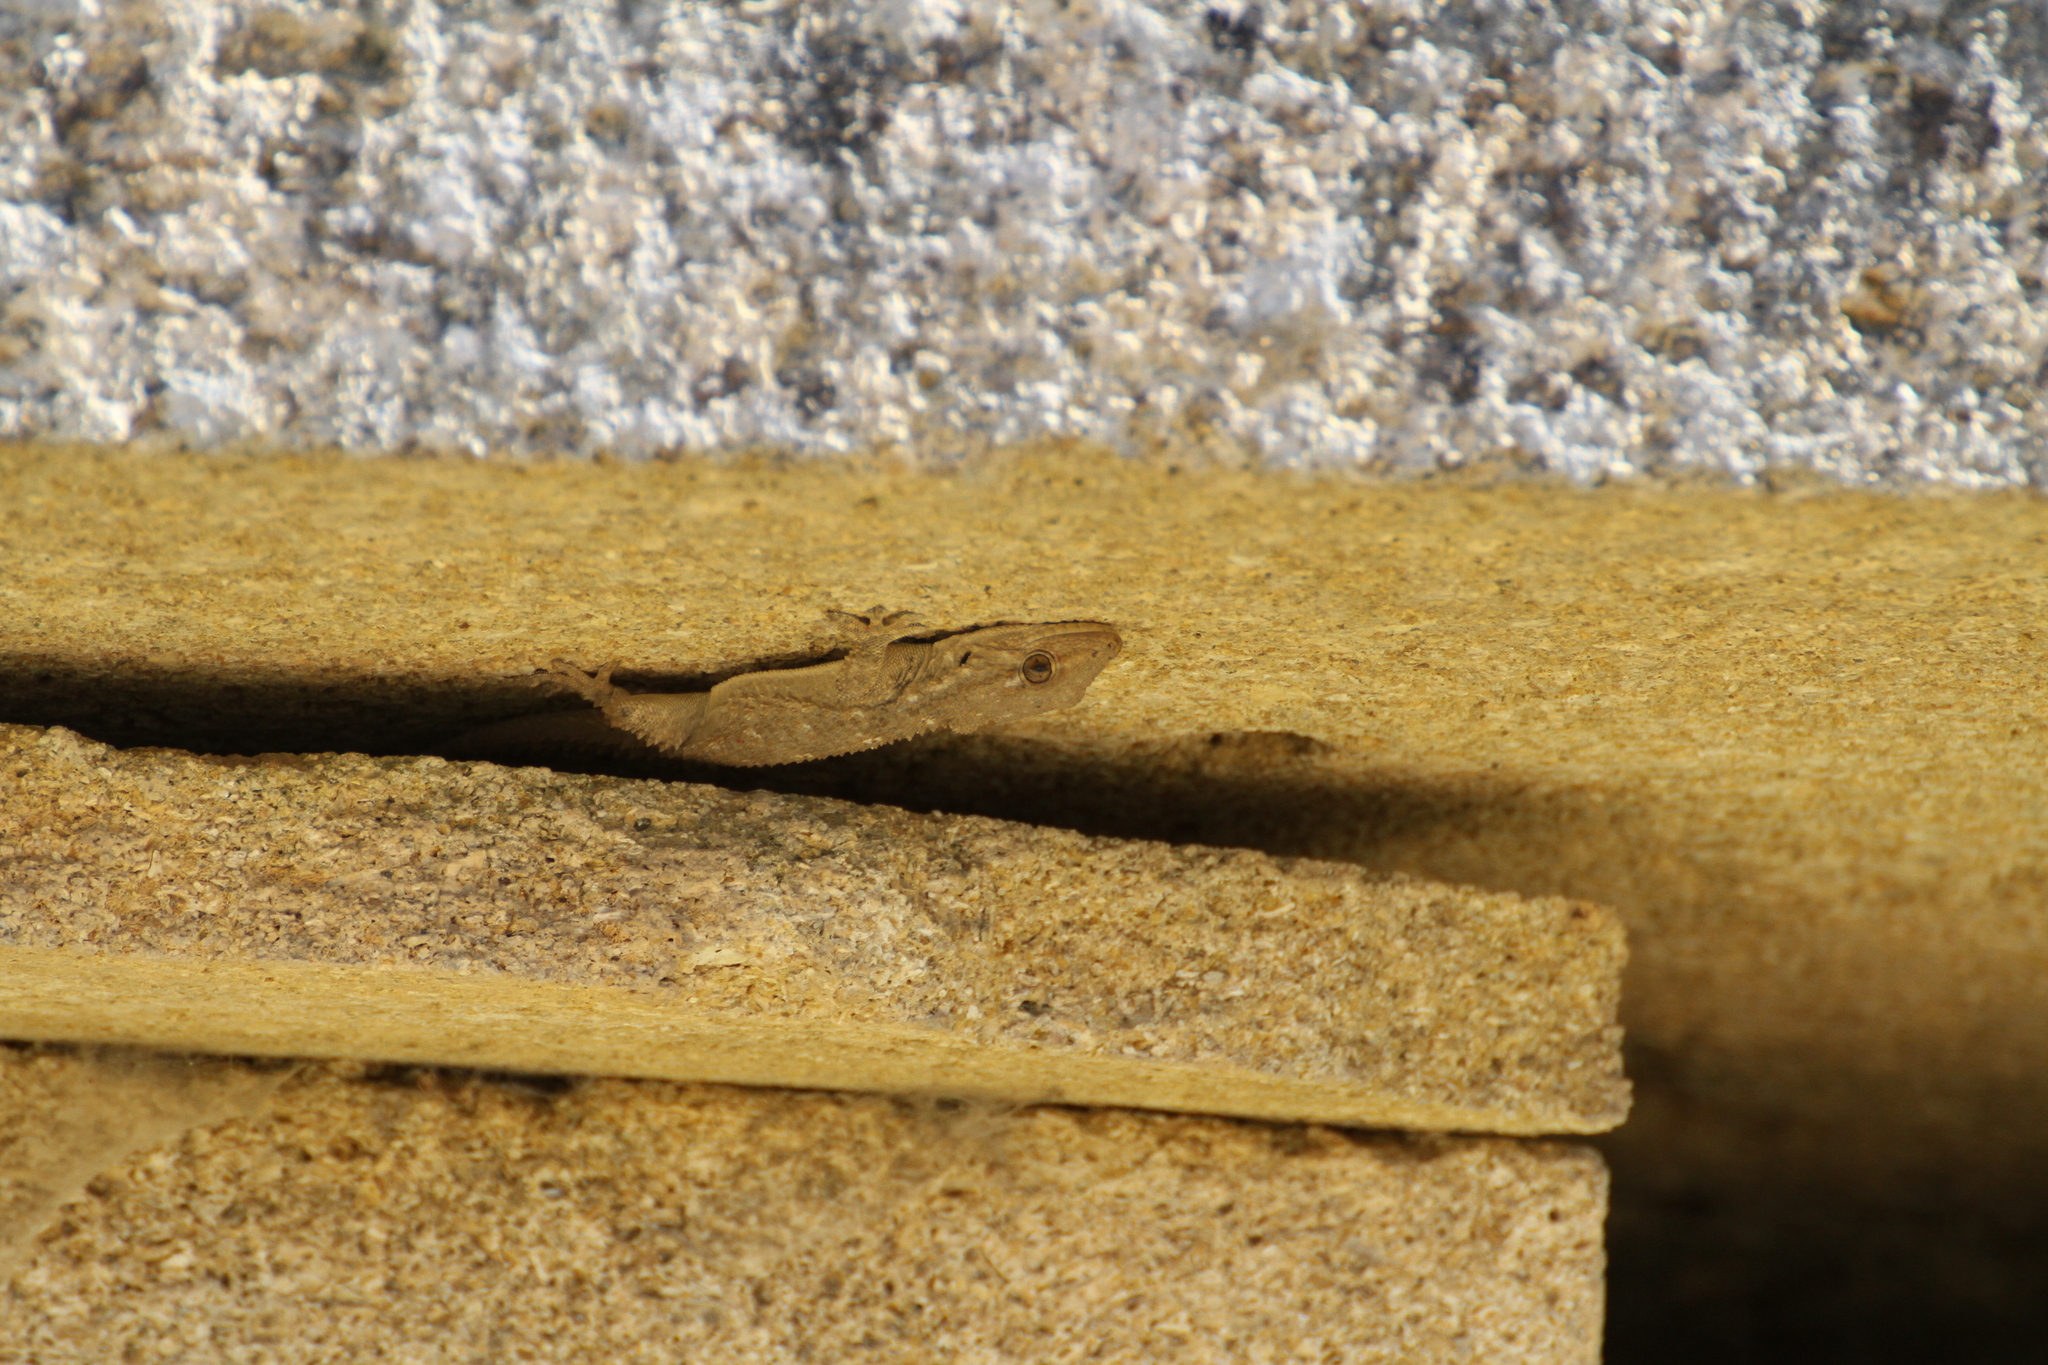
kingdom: Animalia
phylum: Chordata
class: Squamata
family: Phyllodactylidae
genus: Tarentola
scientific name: Tarentola mauritanica
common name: Moorish gecko
